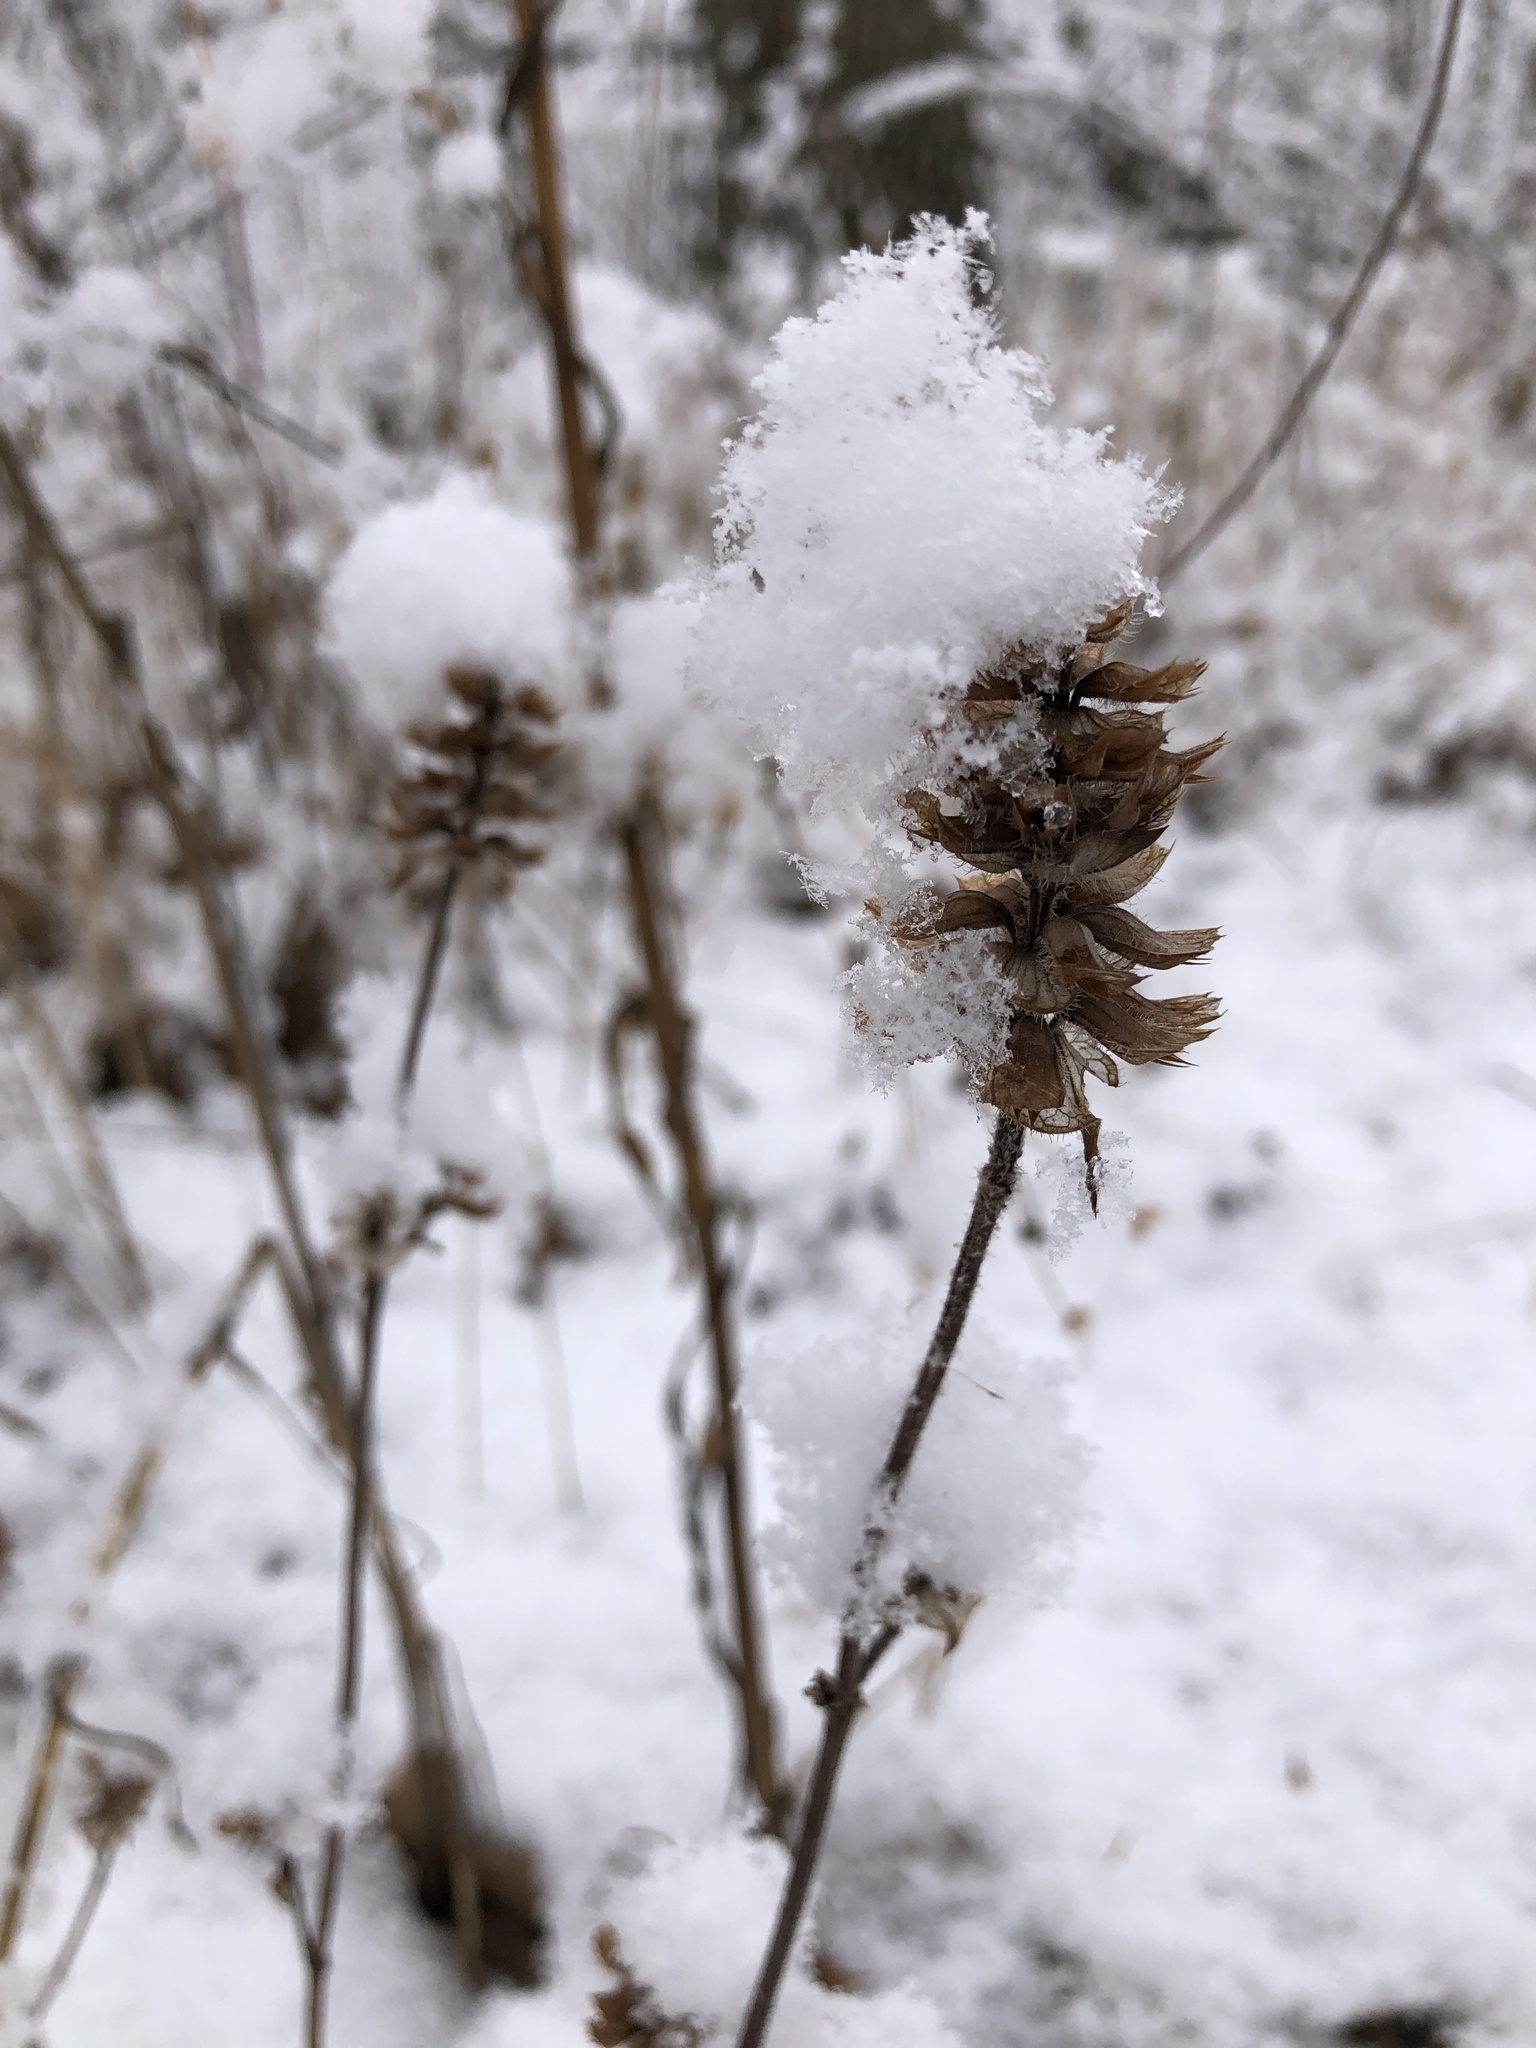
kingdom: Plantae
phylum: Tracheophyta
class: Magnoliopsida
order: Lamiales
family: Lamiaceae
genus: Prunella
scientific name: Prunella vulgaris
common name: Heal-all
